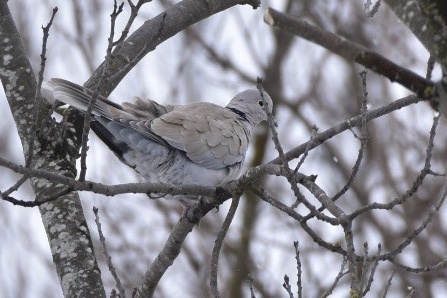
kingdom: Animalia
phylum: Chordata
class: Aves
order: Columbiformes
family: Columbidae
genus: Streptopelia
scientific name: Streptopelia decaocto
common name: Eurasian collared dove
